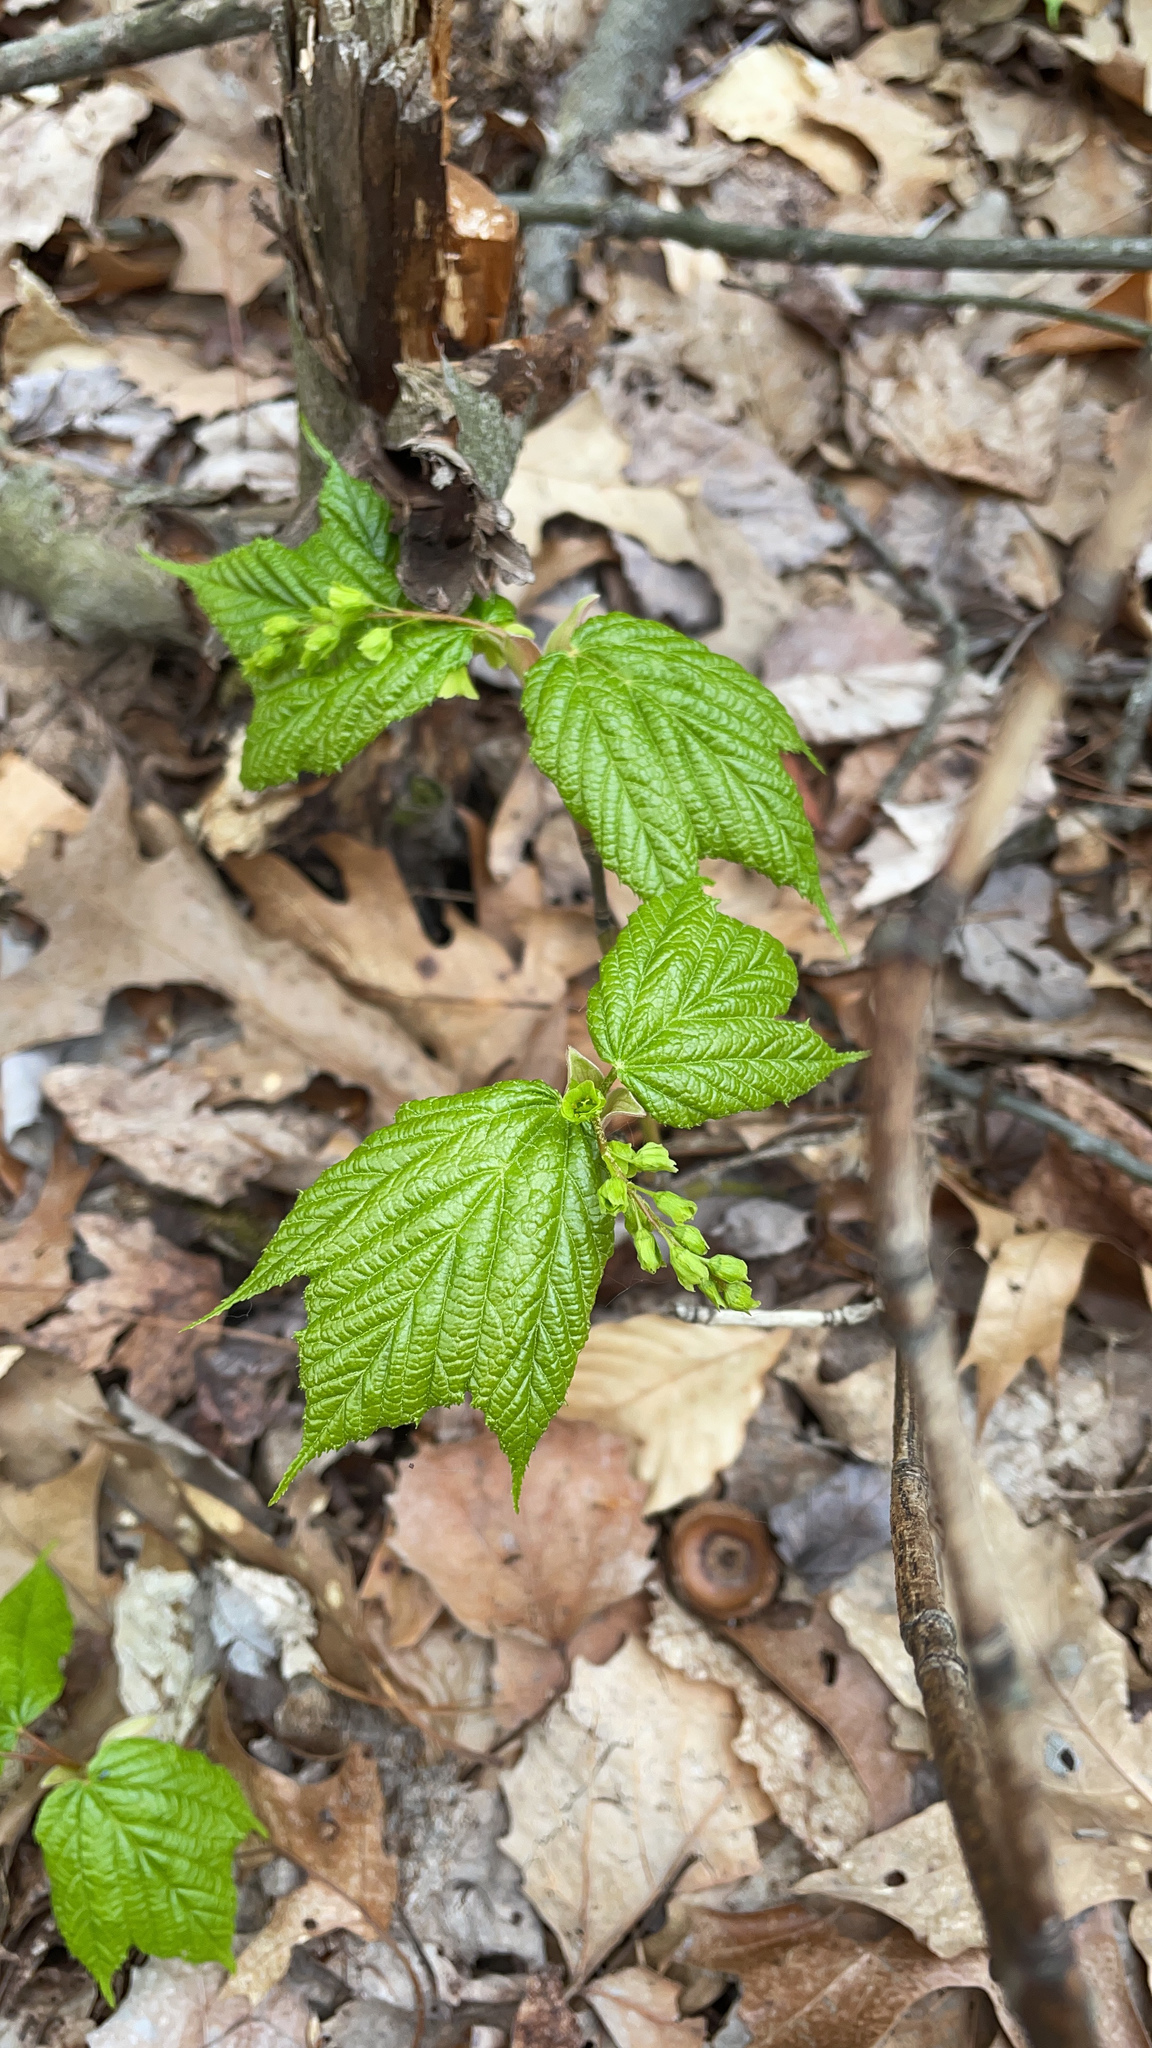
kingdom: Plantae
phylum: Tracheophyta
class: Magnoliopsida
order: Sapindales
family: Sapindaceae
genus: Acer
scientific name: Acer pensylvanicum
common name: Moosewood
